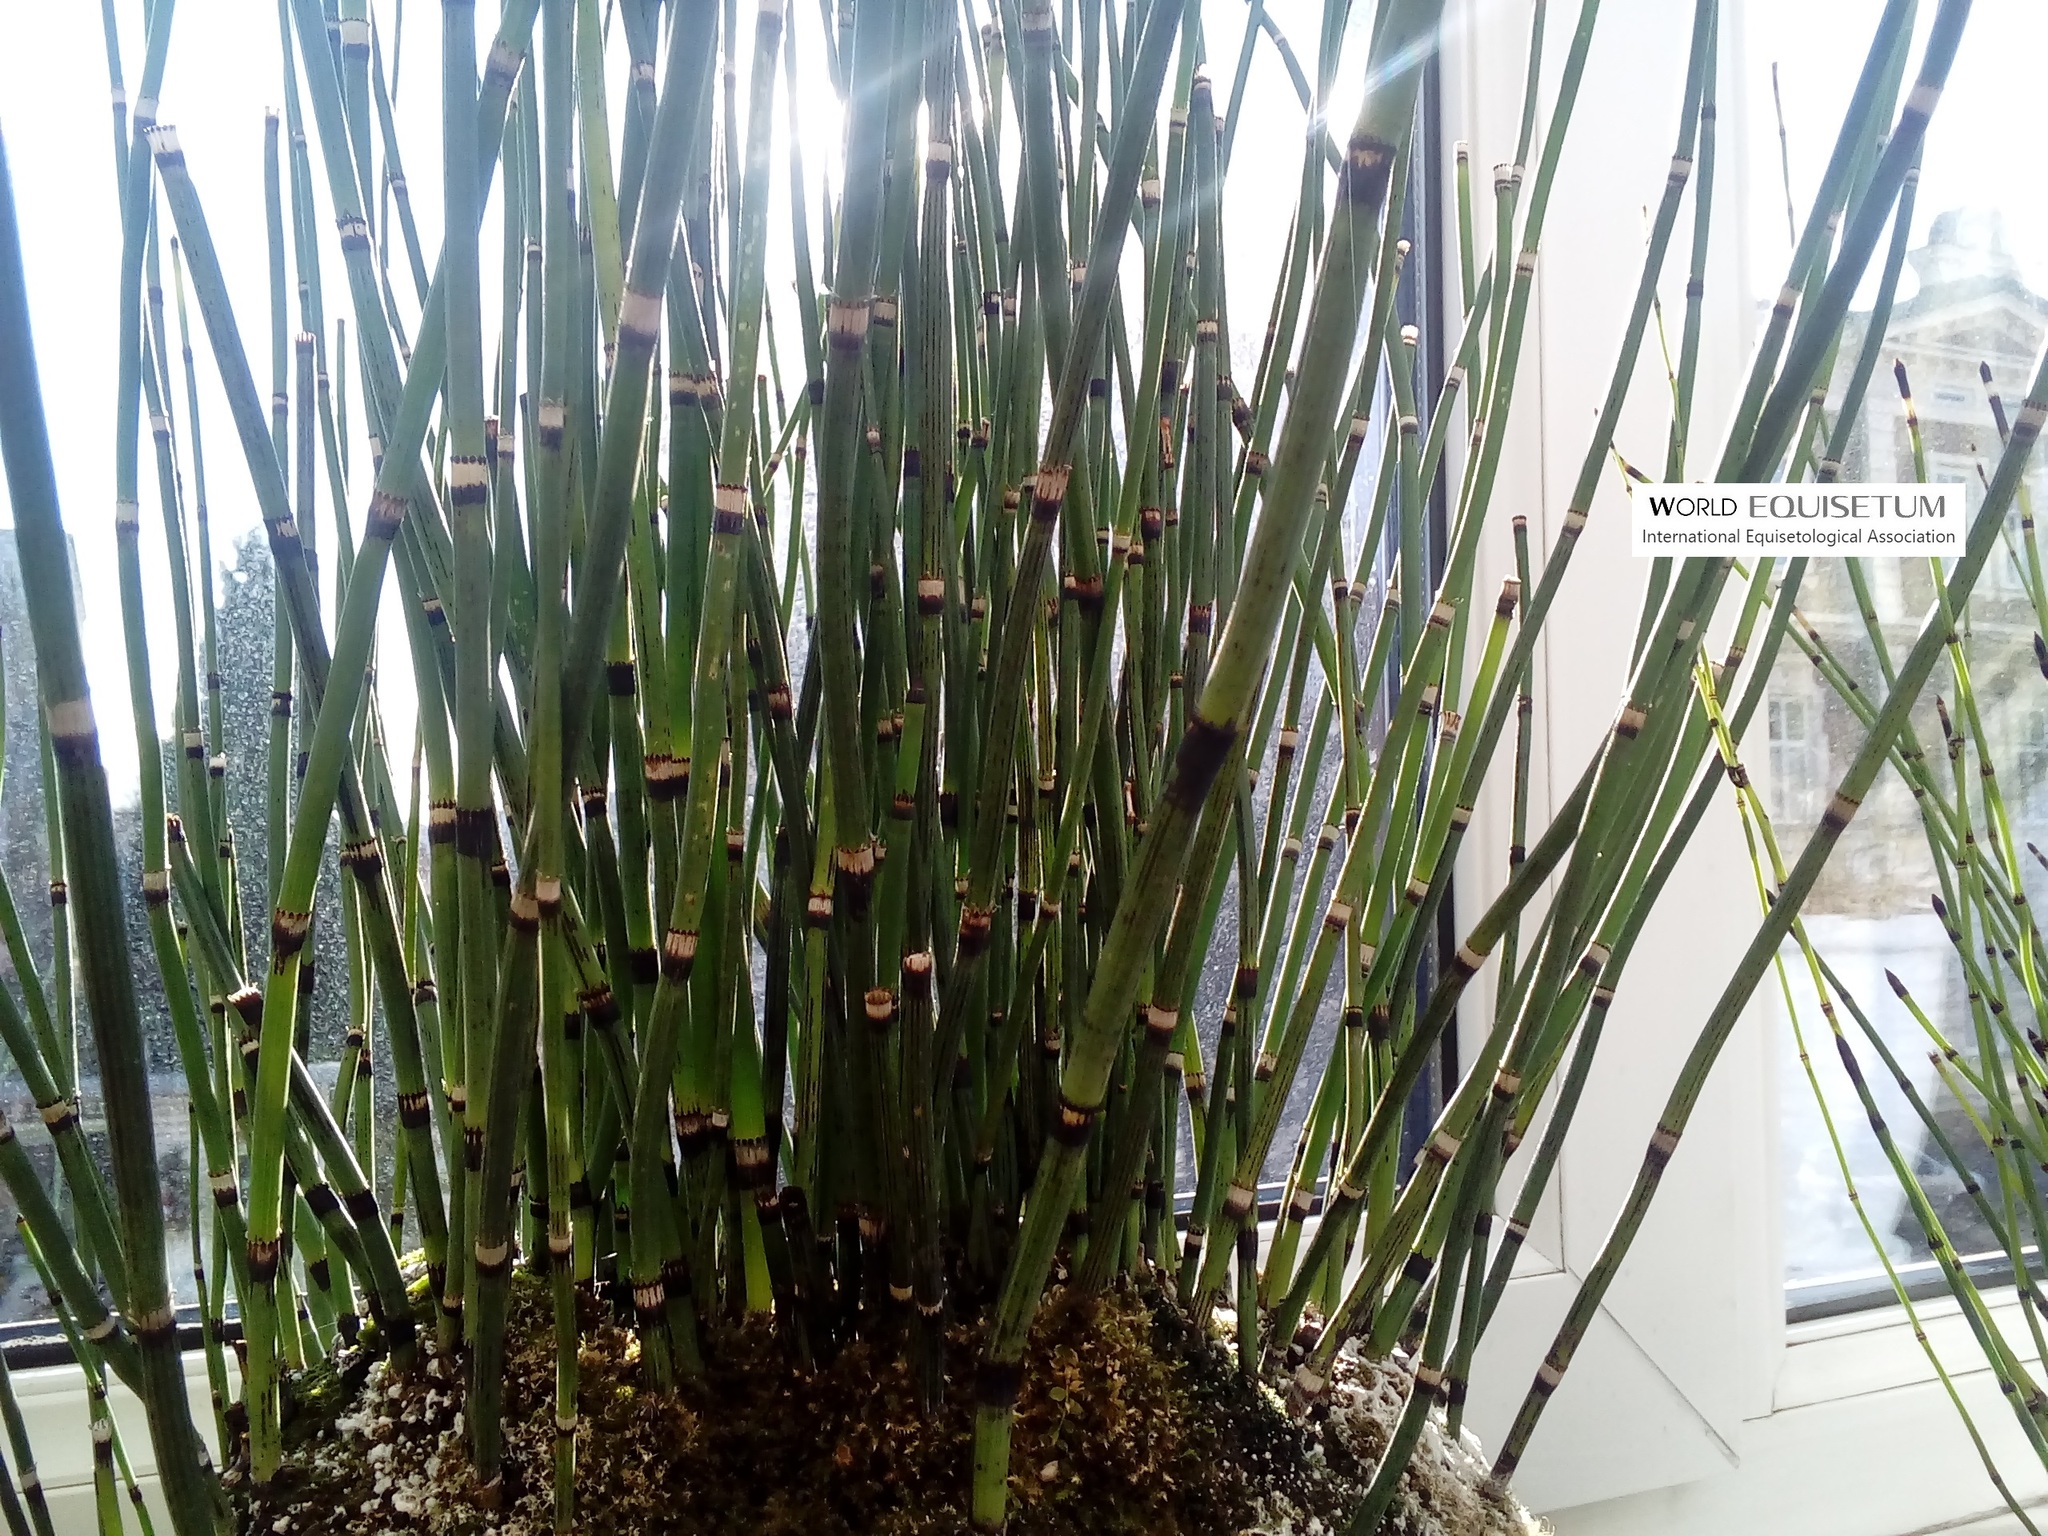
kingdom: Plantae
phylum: Tracheophyta
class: Polypodiopsida
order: Equisetales
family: Equisetaceae
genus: Equisetum
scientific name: Equisetum hyemale
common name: Rough horsetail
